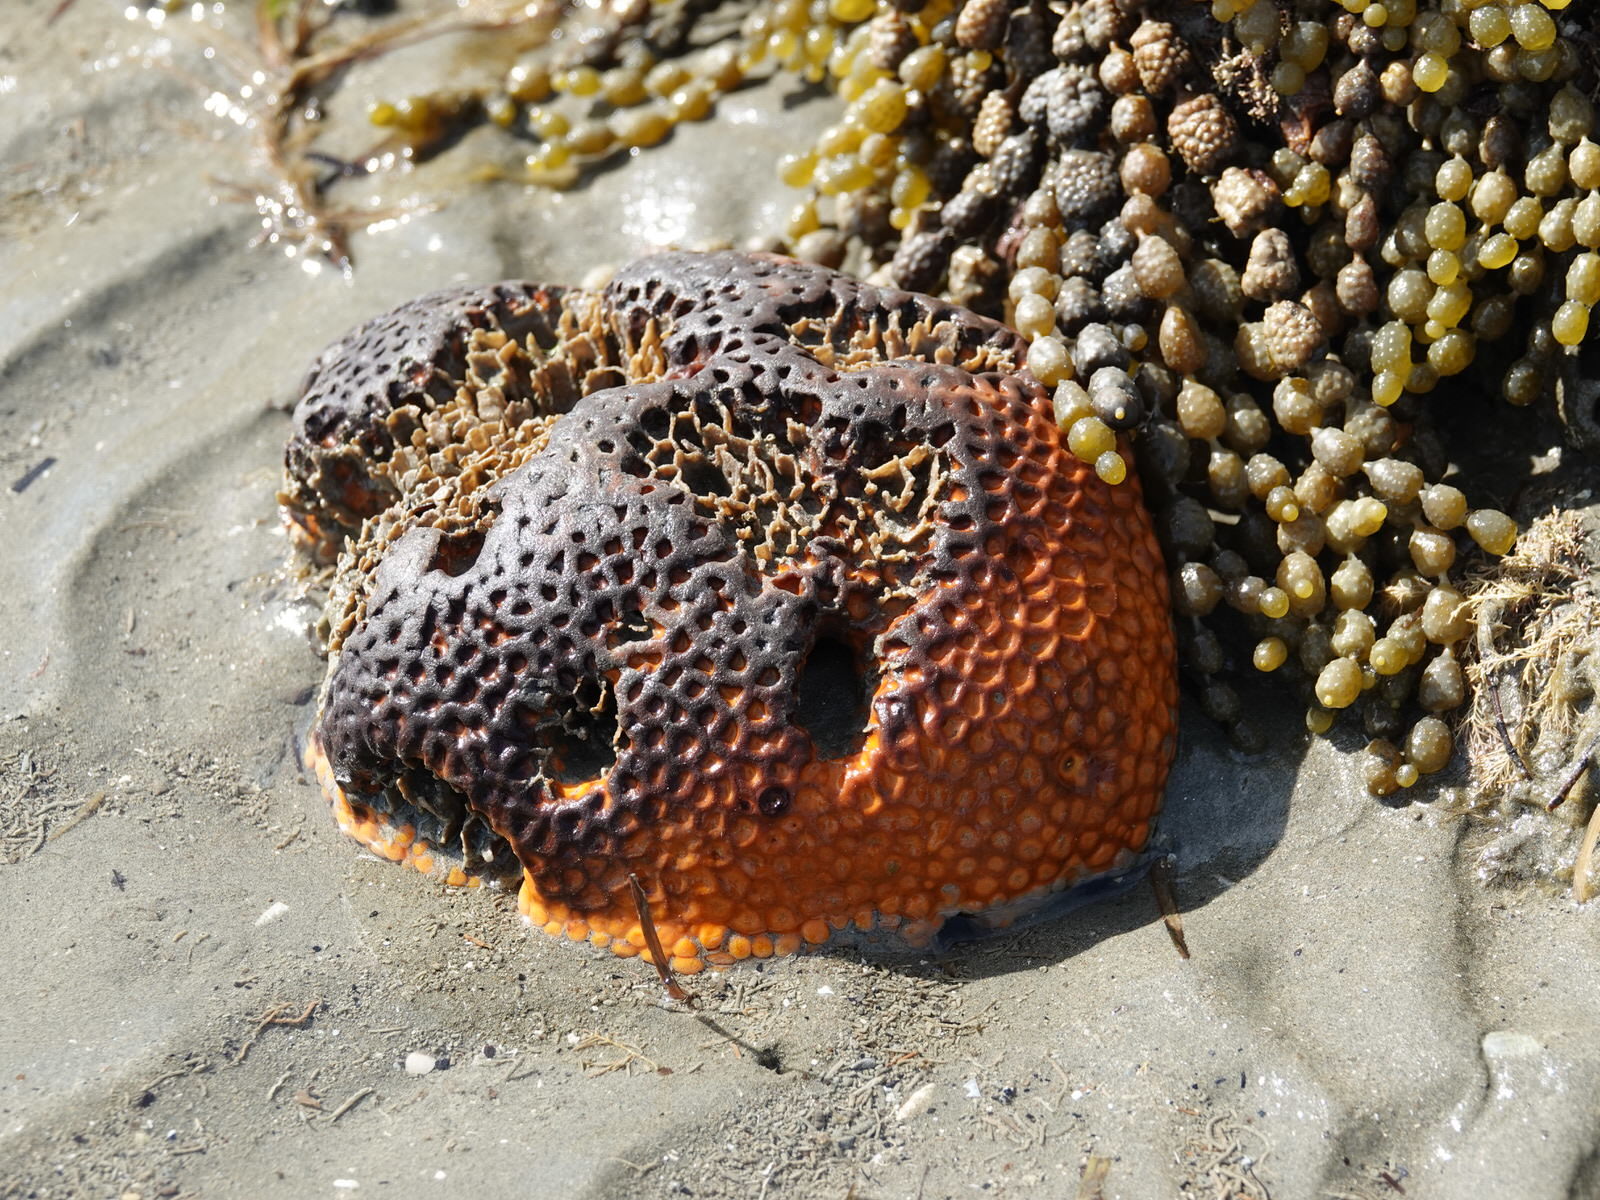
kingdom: Animalia
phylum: Porifera
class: Demospongiae
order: Polymastiida
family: Polymastiidae
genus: Polymastia
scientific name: Polymastia crocea
